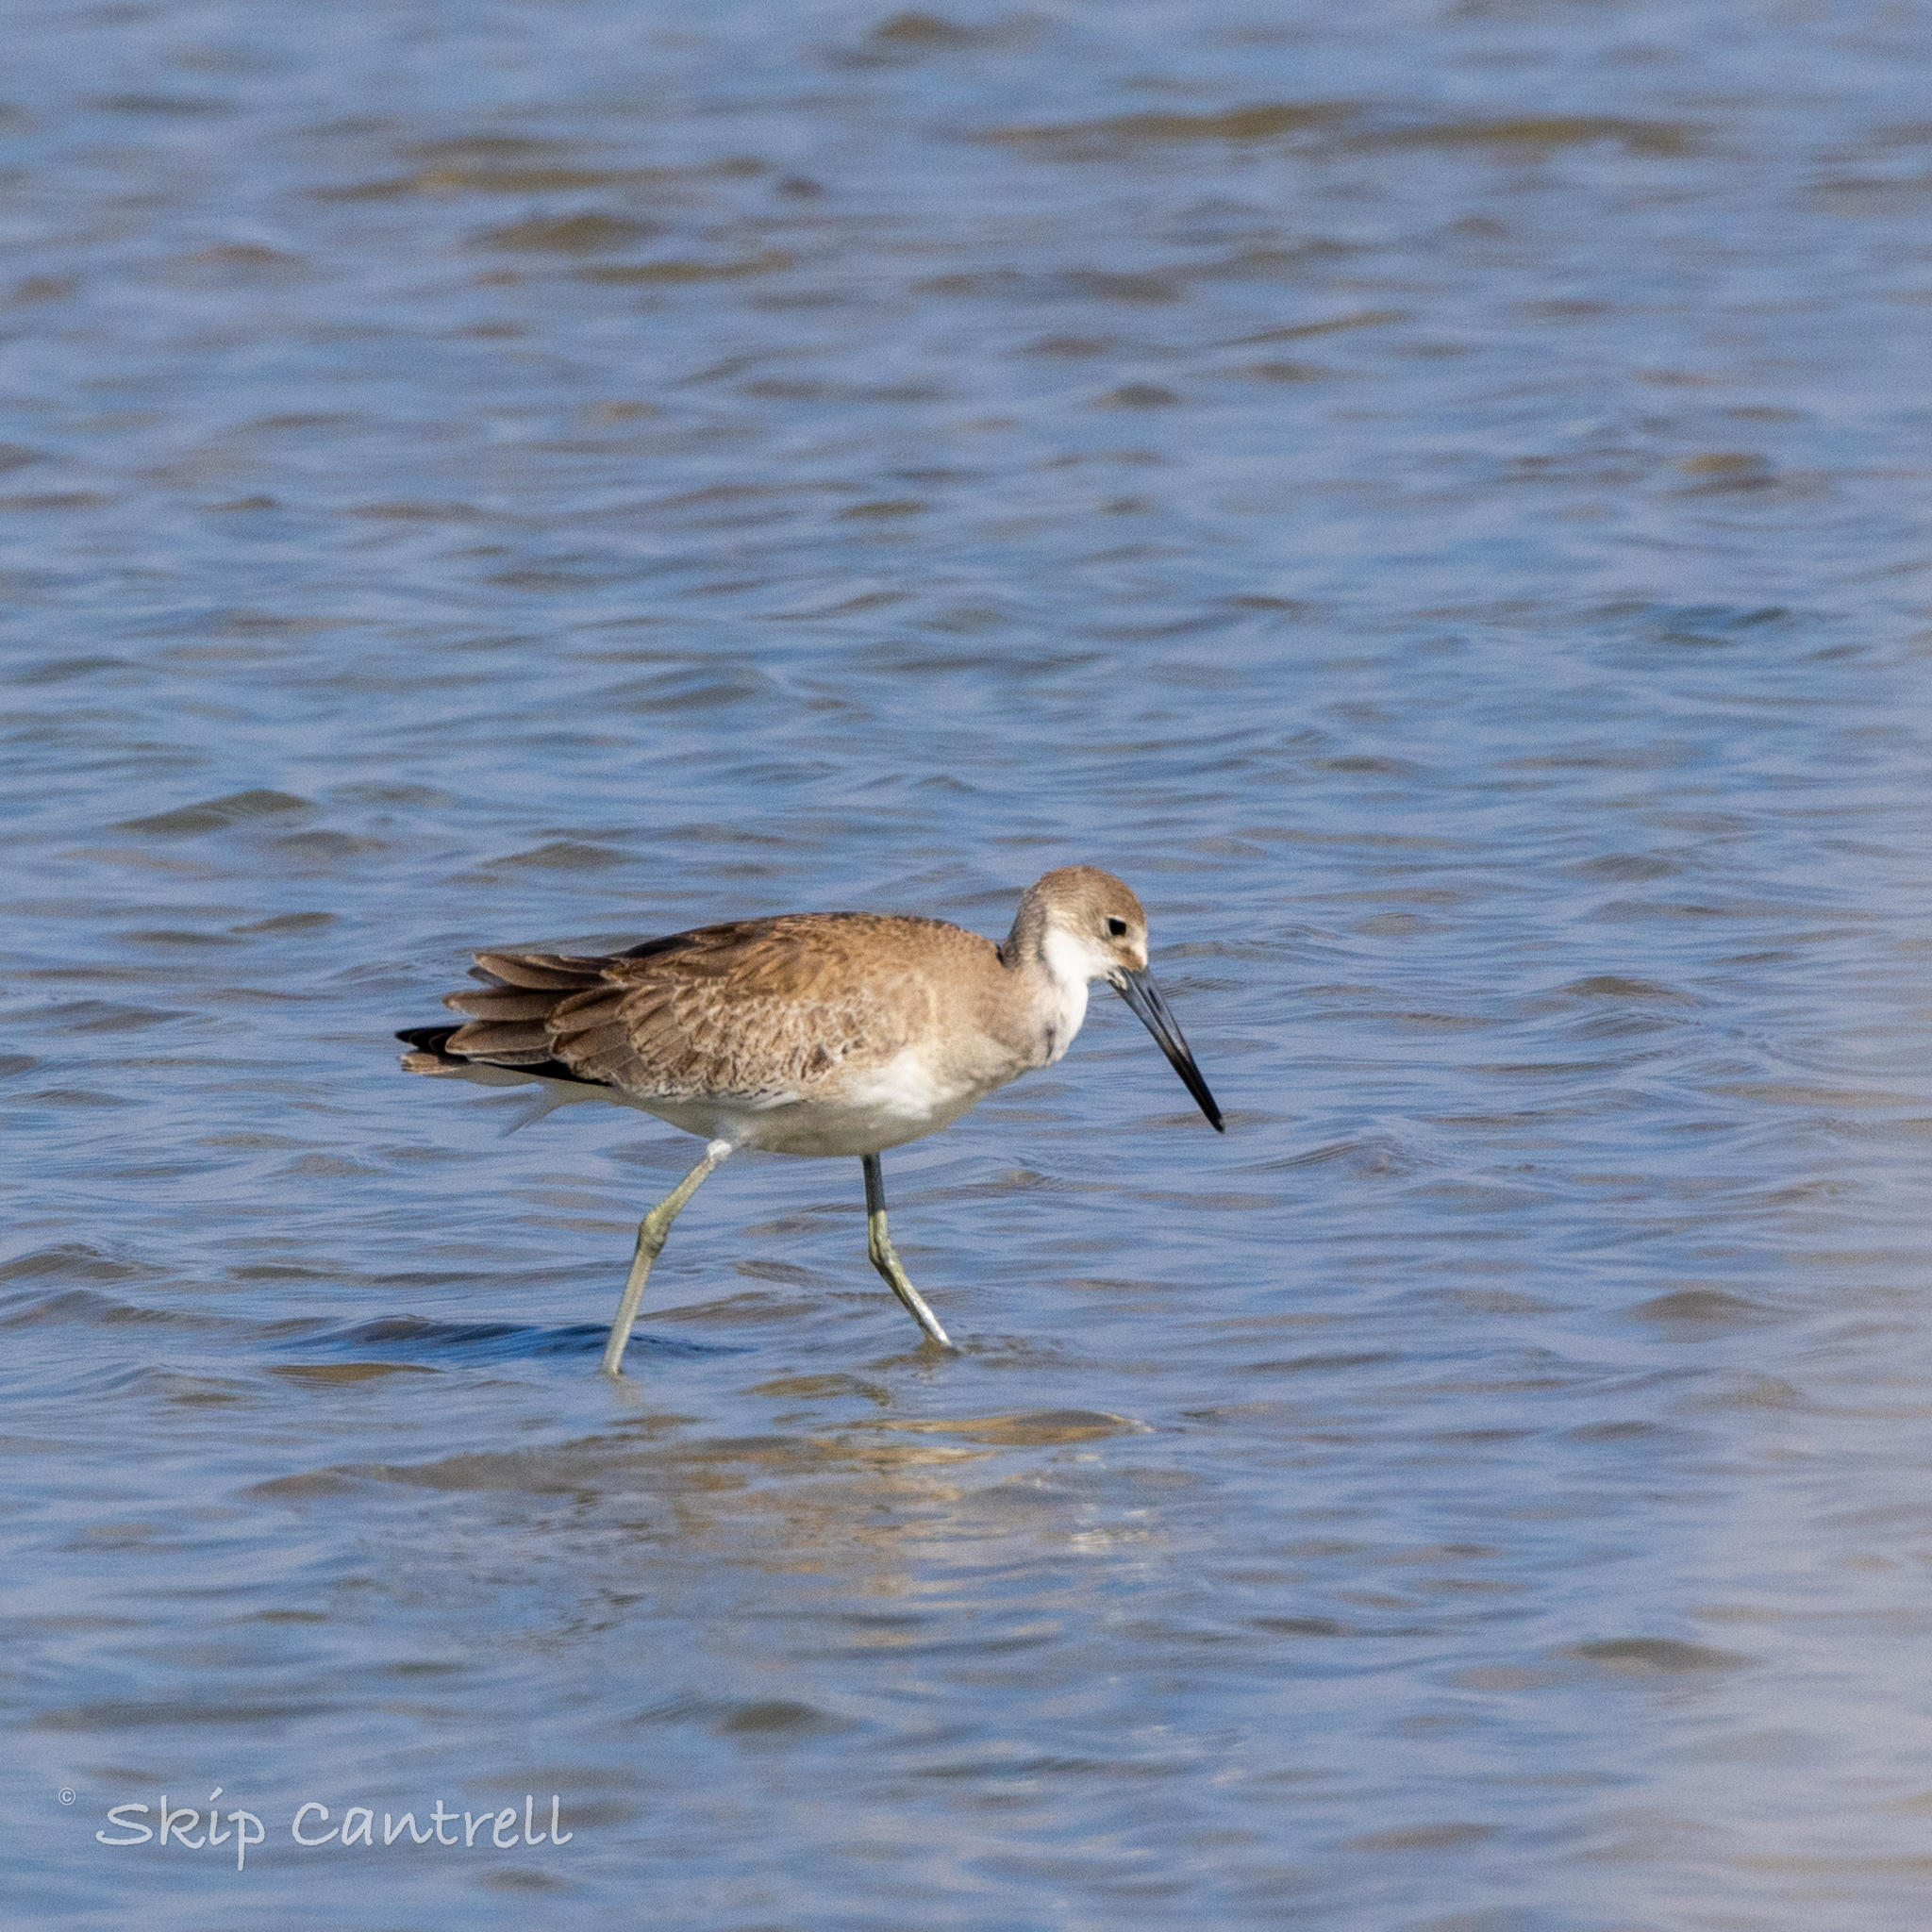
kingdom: Animalia
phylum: Chordata
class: Aves
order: Charadriiformes
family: Scolopacidae
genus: Tringa
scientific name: Tringa semipalmata
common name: Willet
